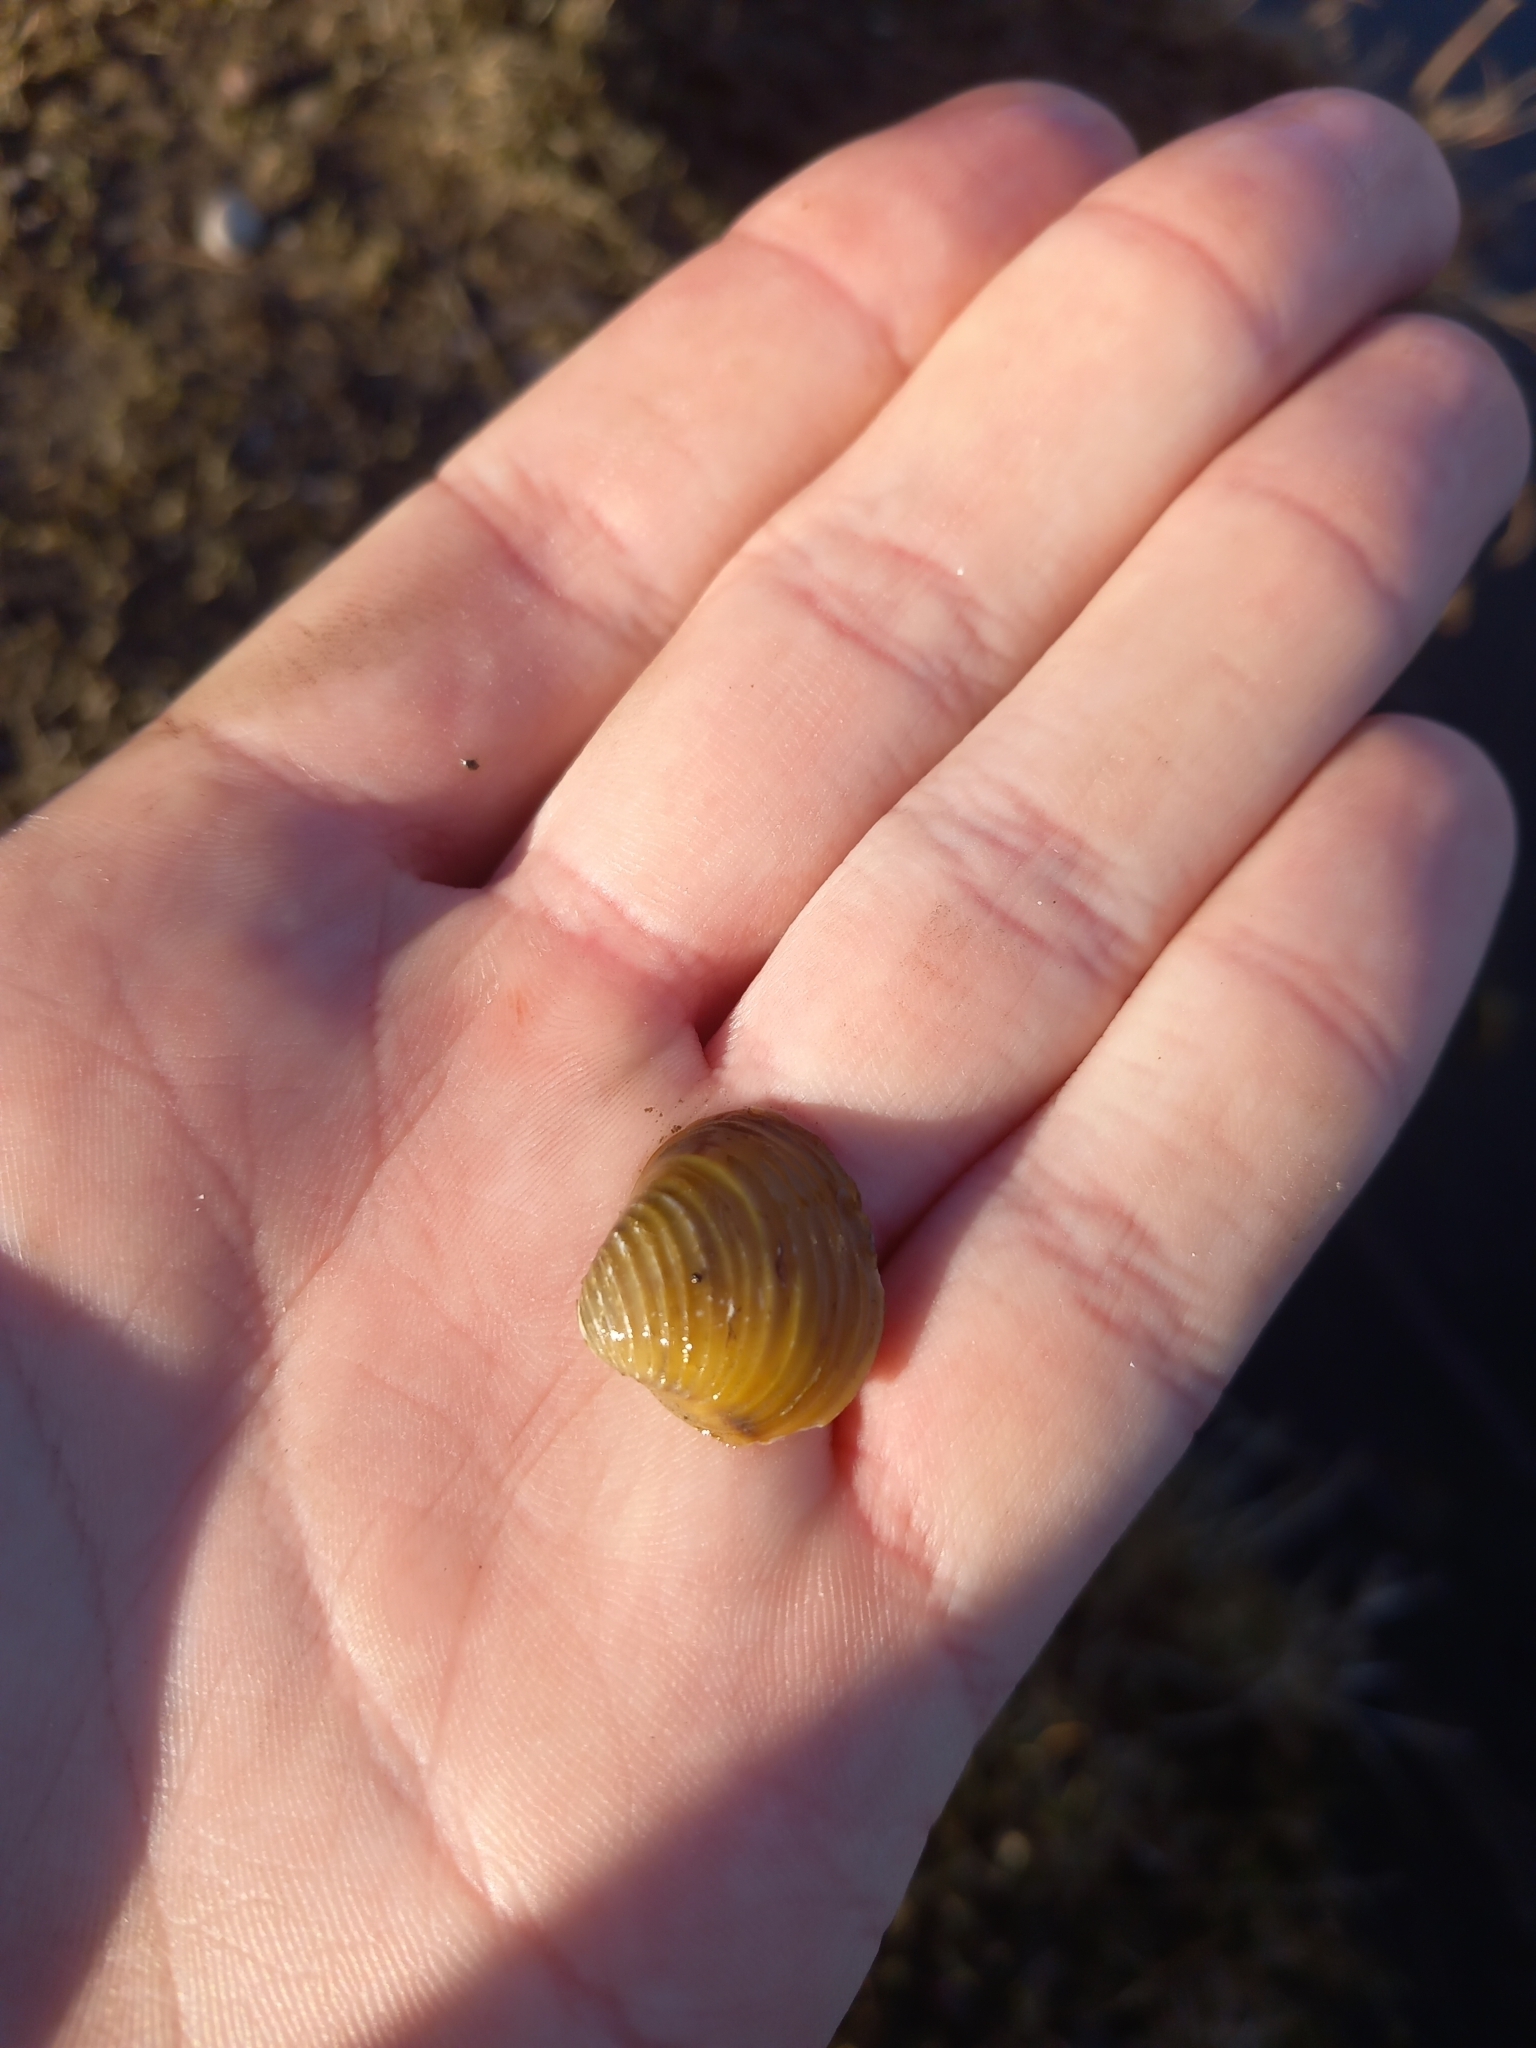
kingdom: Animalia
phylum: Mollusca
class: Bivalvia
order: Venerida
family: Cyrenidae
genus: Corbicula
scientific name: Corbicula fluminea
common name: Asian clam
